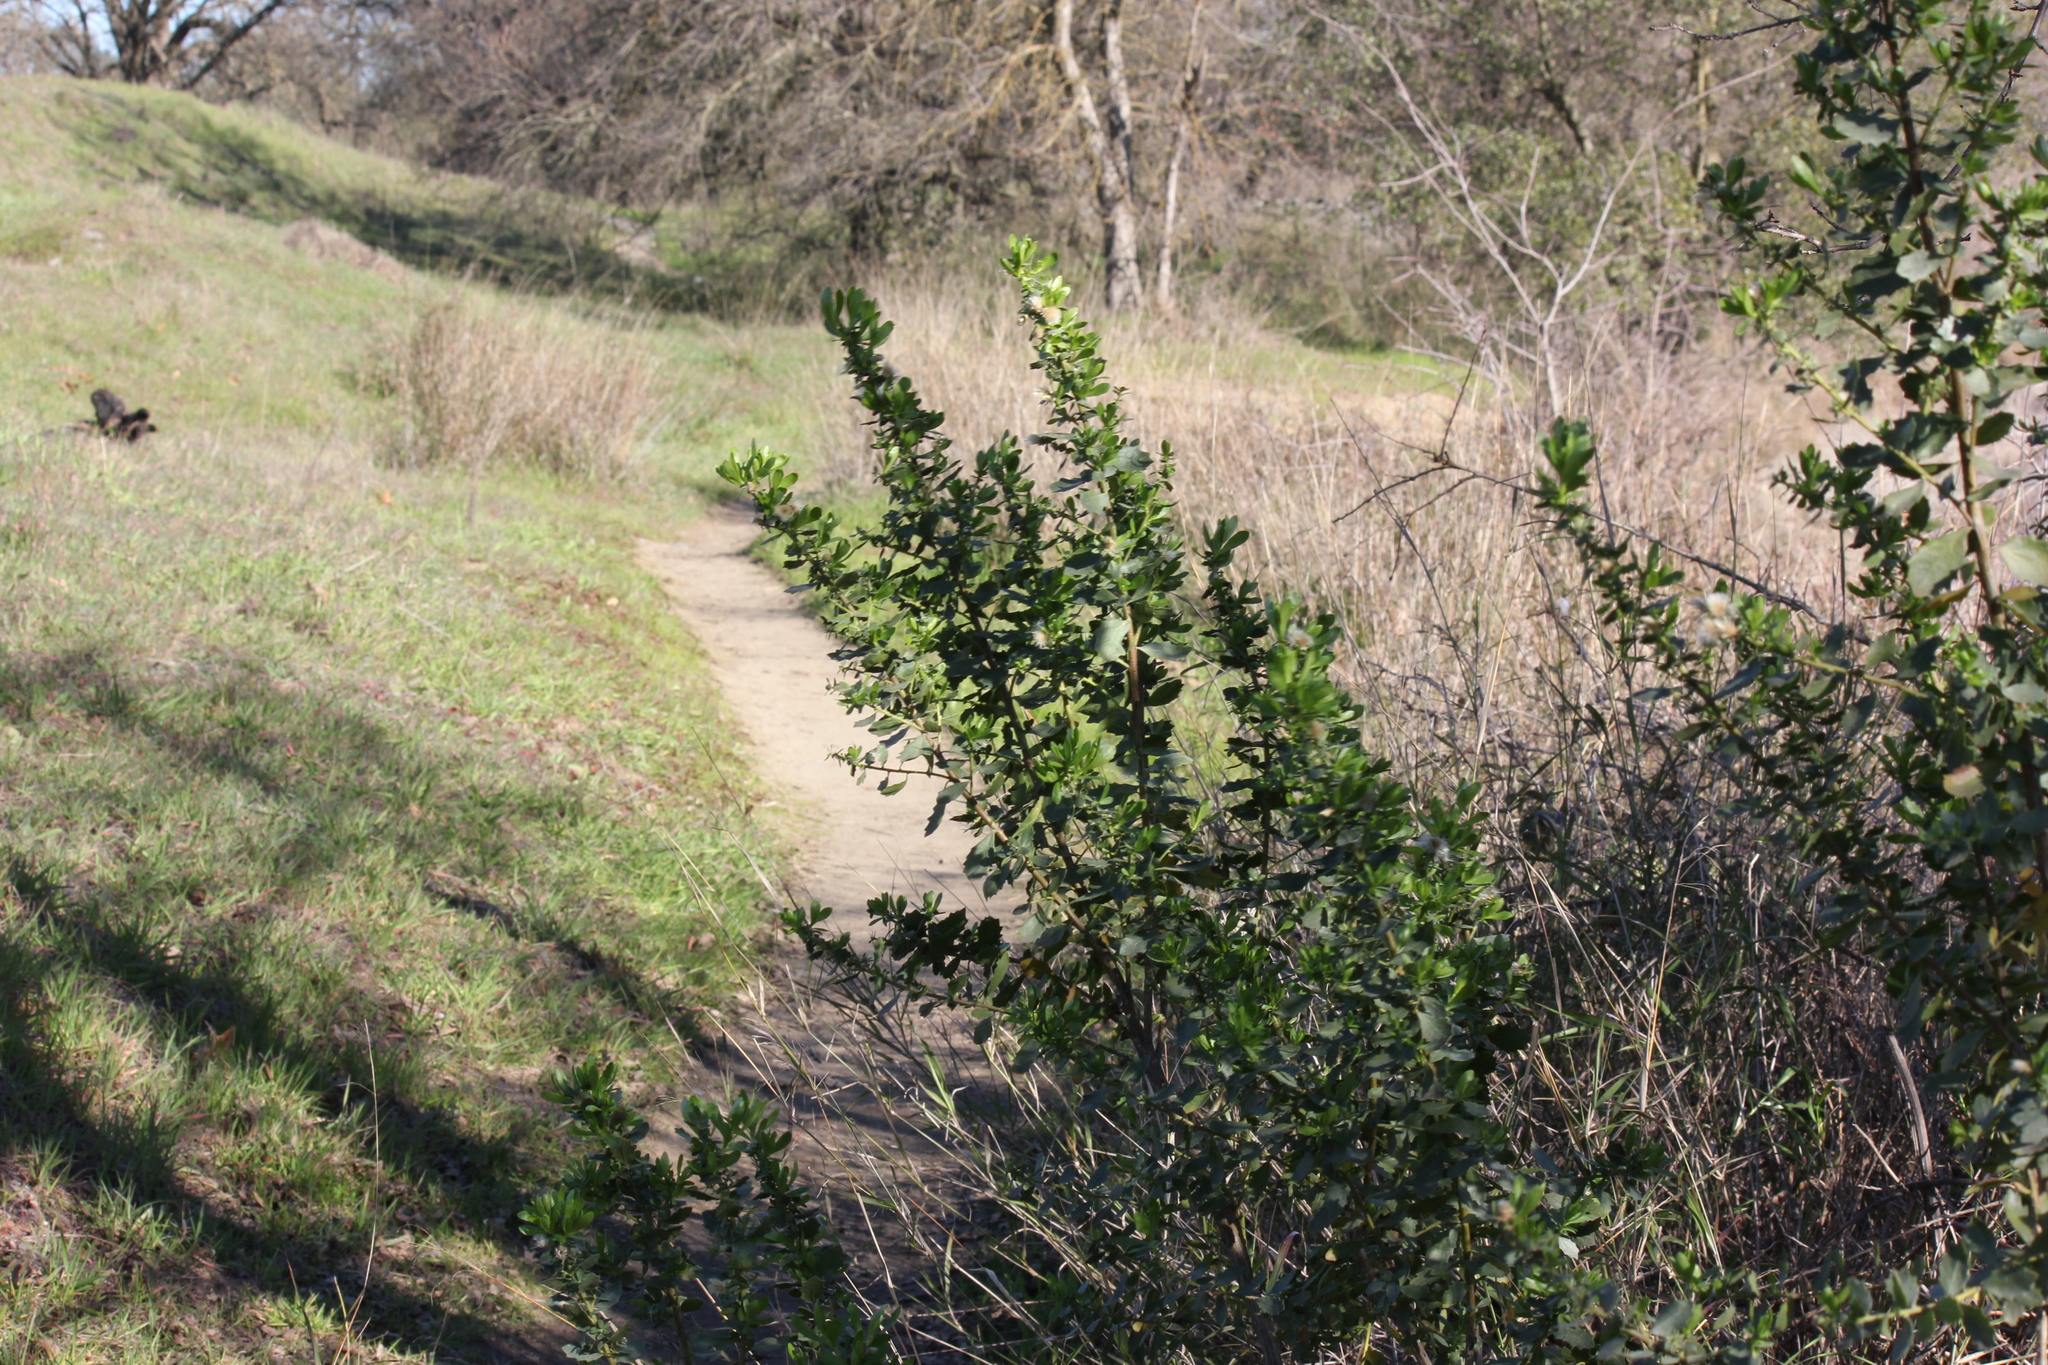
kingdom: Plantae
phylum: Tracheophyta
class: Magnoliopsida
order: Asterales
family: Asteraceae
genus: Baccharis
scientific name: Baccharis pilularis
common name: Coyotebrush
